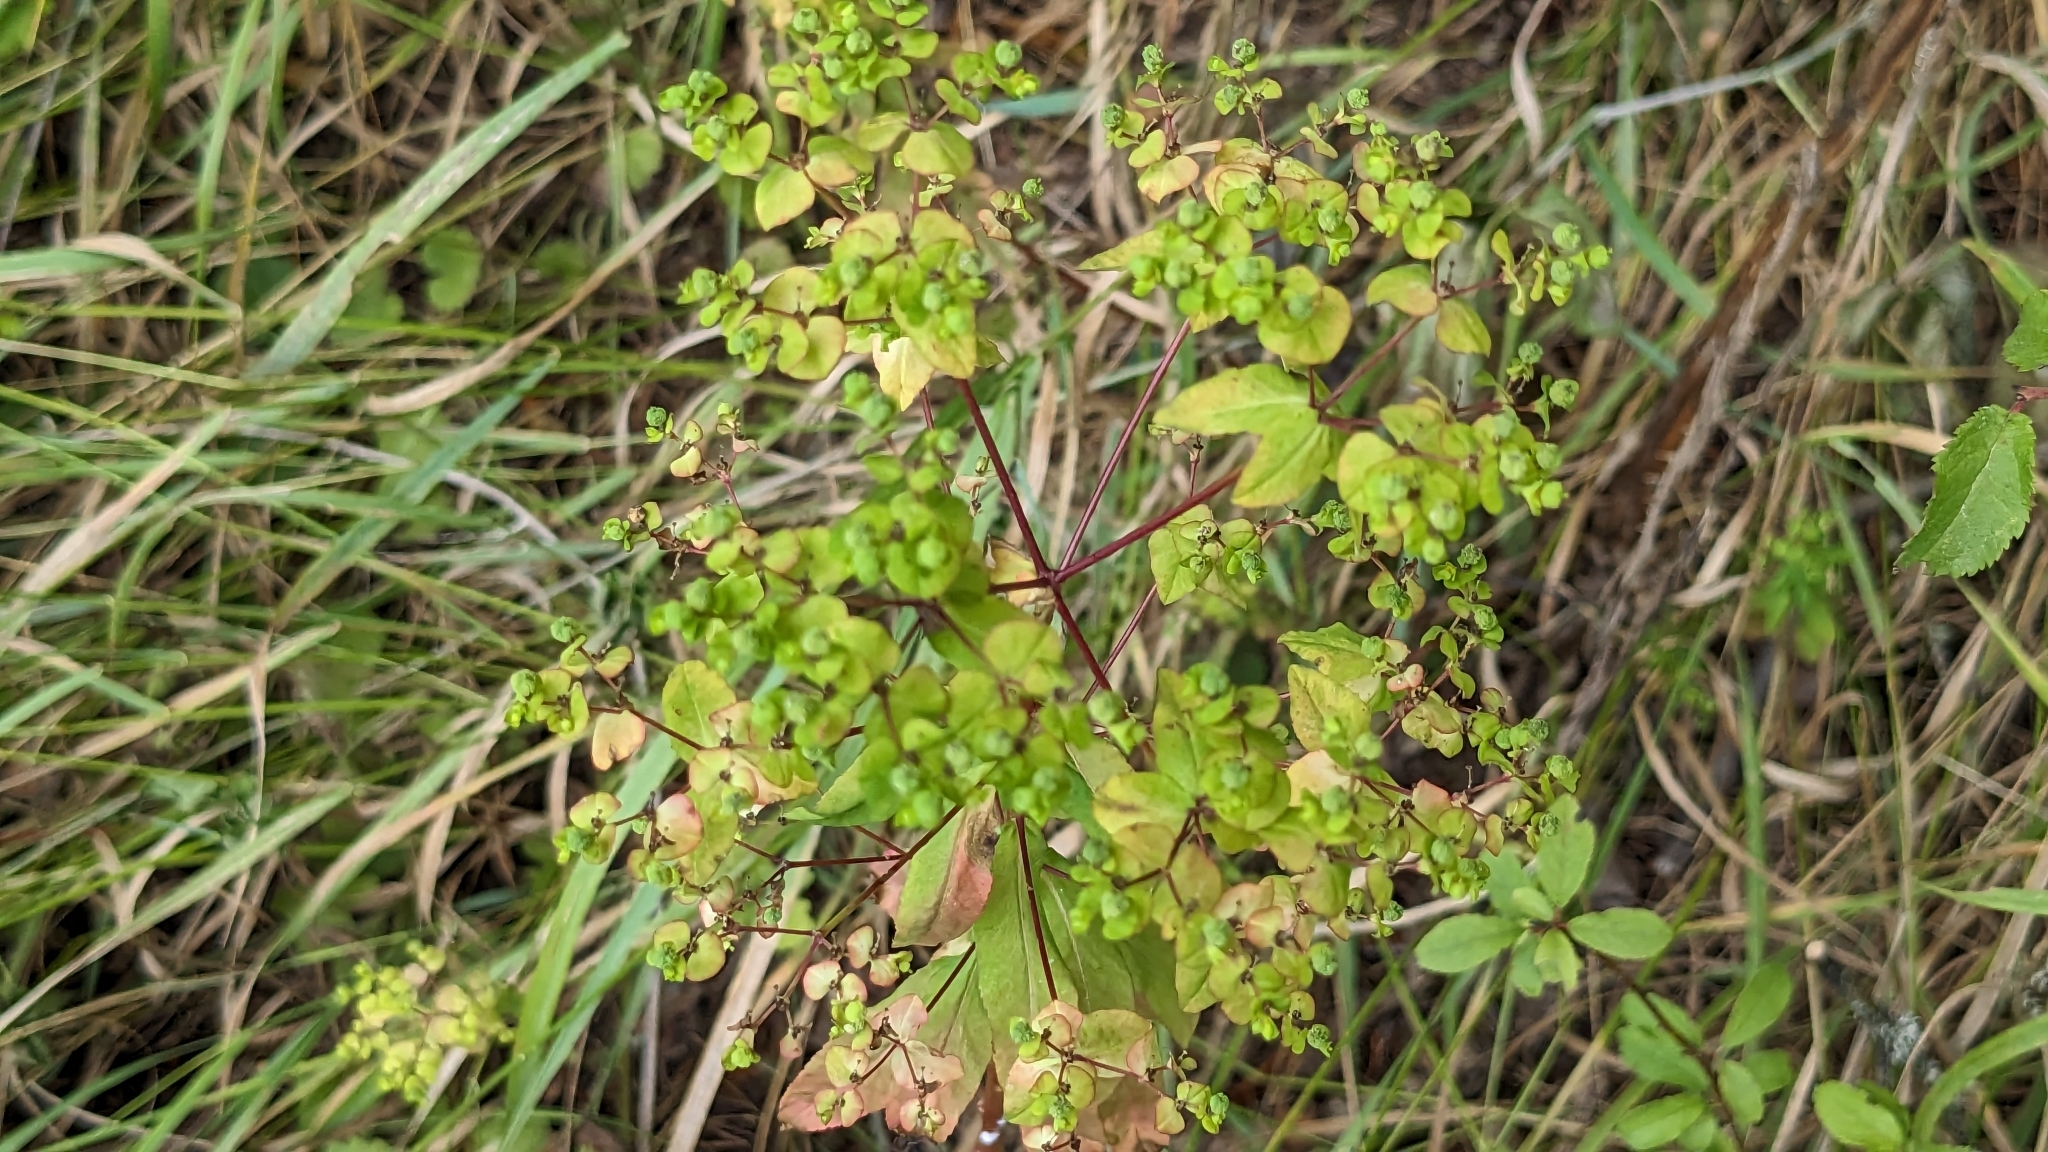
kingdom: Plantae
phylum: Tracheophyta
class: Magnoliopsida
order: Malpighiales
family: Euphorbiaceae
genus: Euphorbia
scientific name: Euphorbia stricta
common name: Upright spurge
